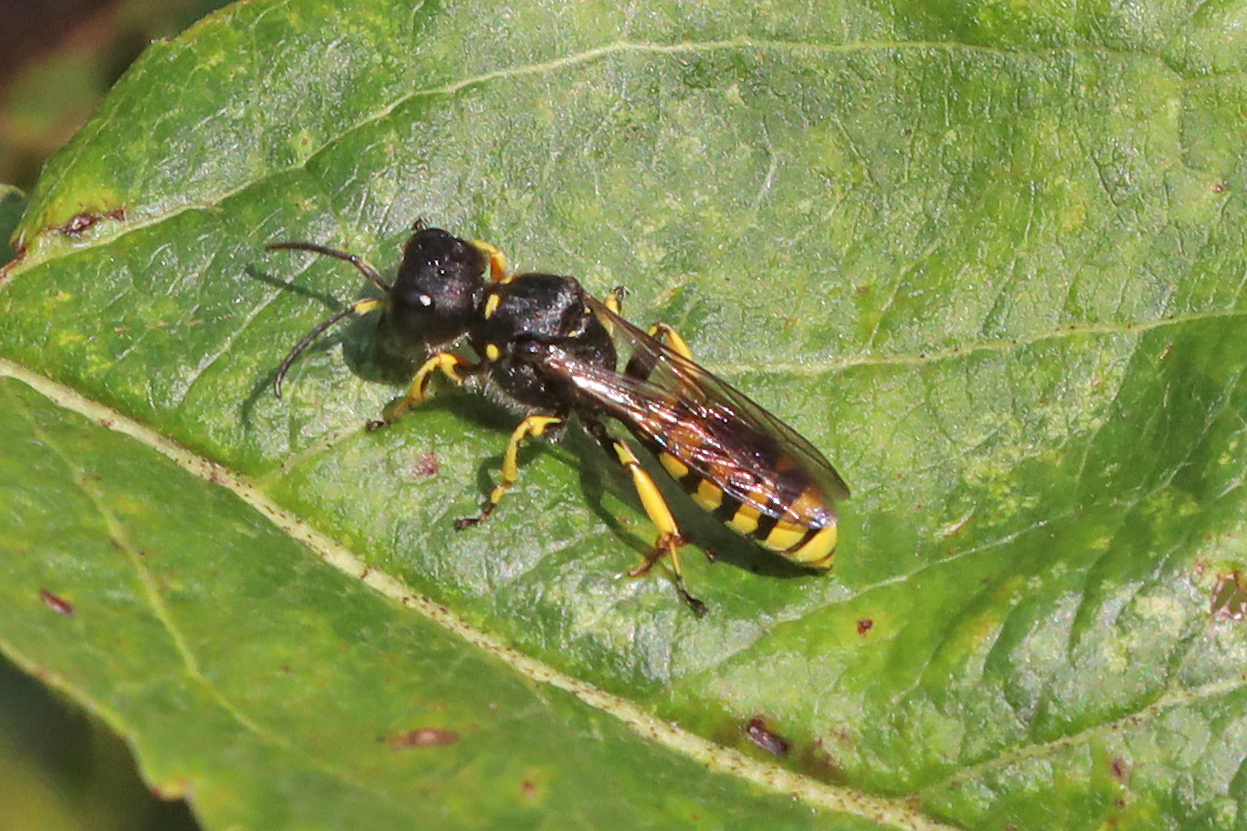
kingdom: Animalia
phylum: Arthropoda
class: Insecta
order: Hymenoptera
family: Crabronidae
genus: Ectemnius
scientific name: Ectemnius cephalotes
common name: Sphecid wasp
